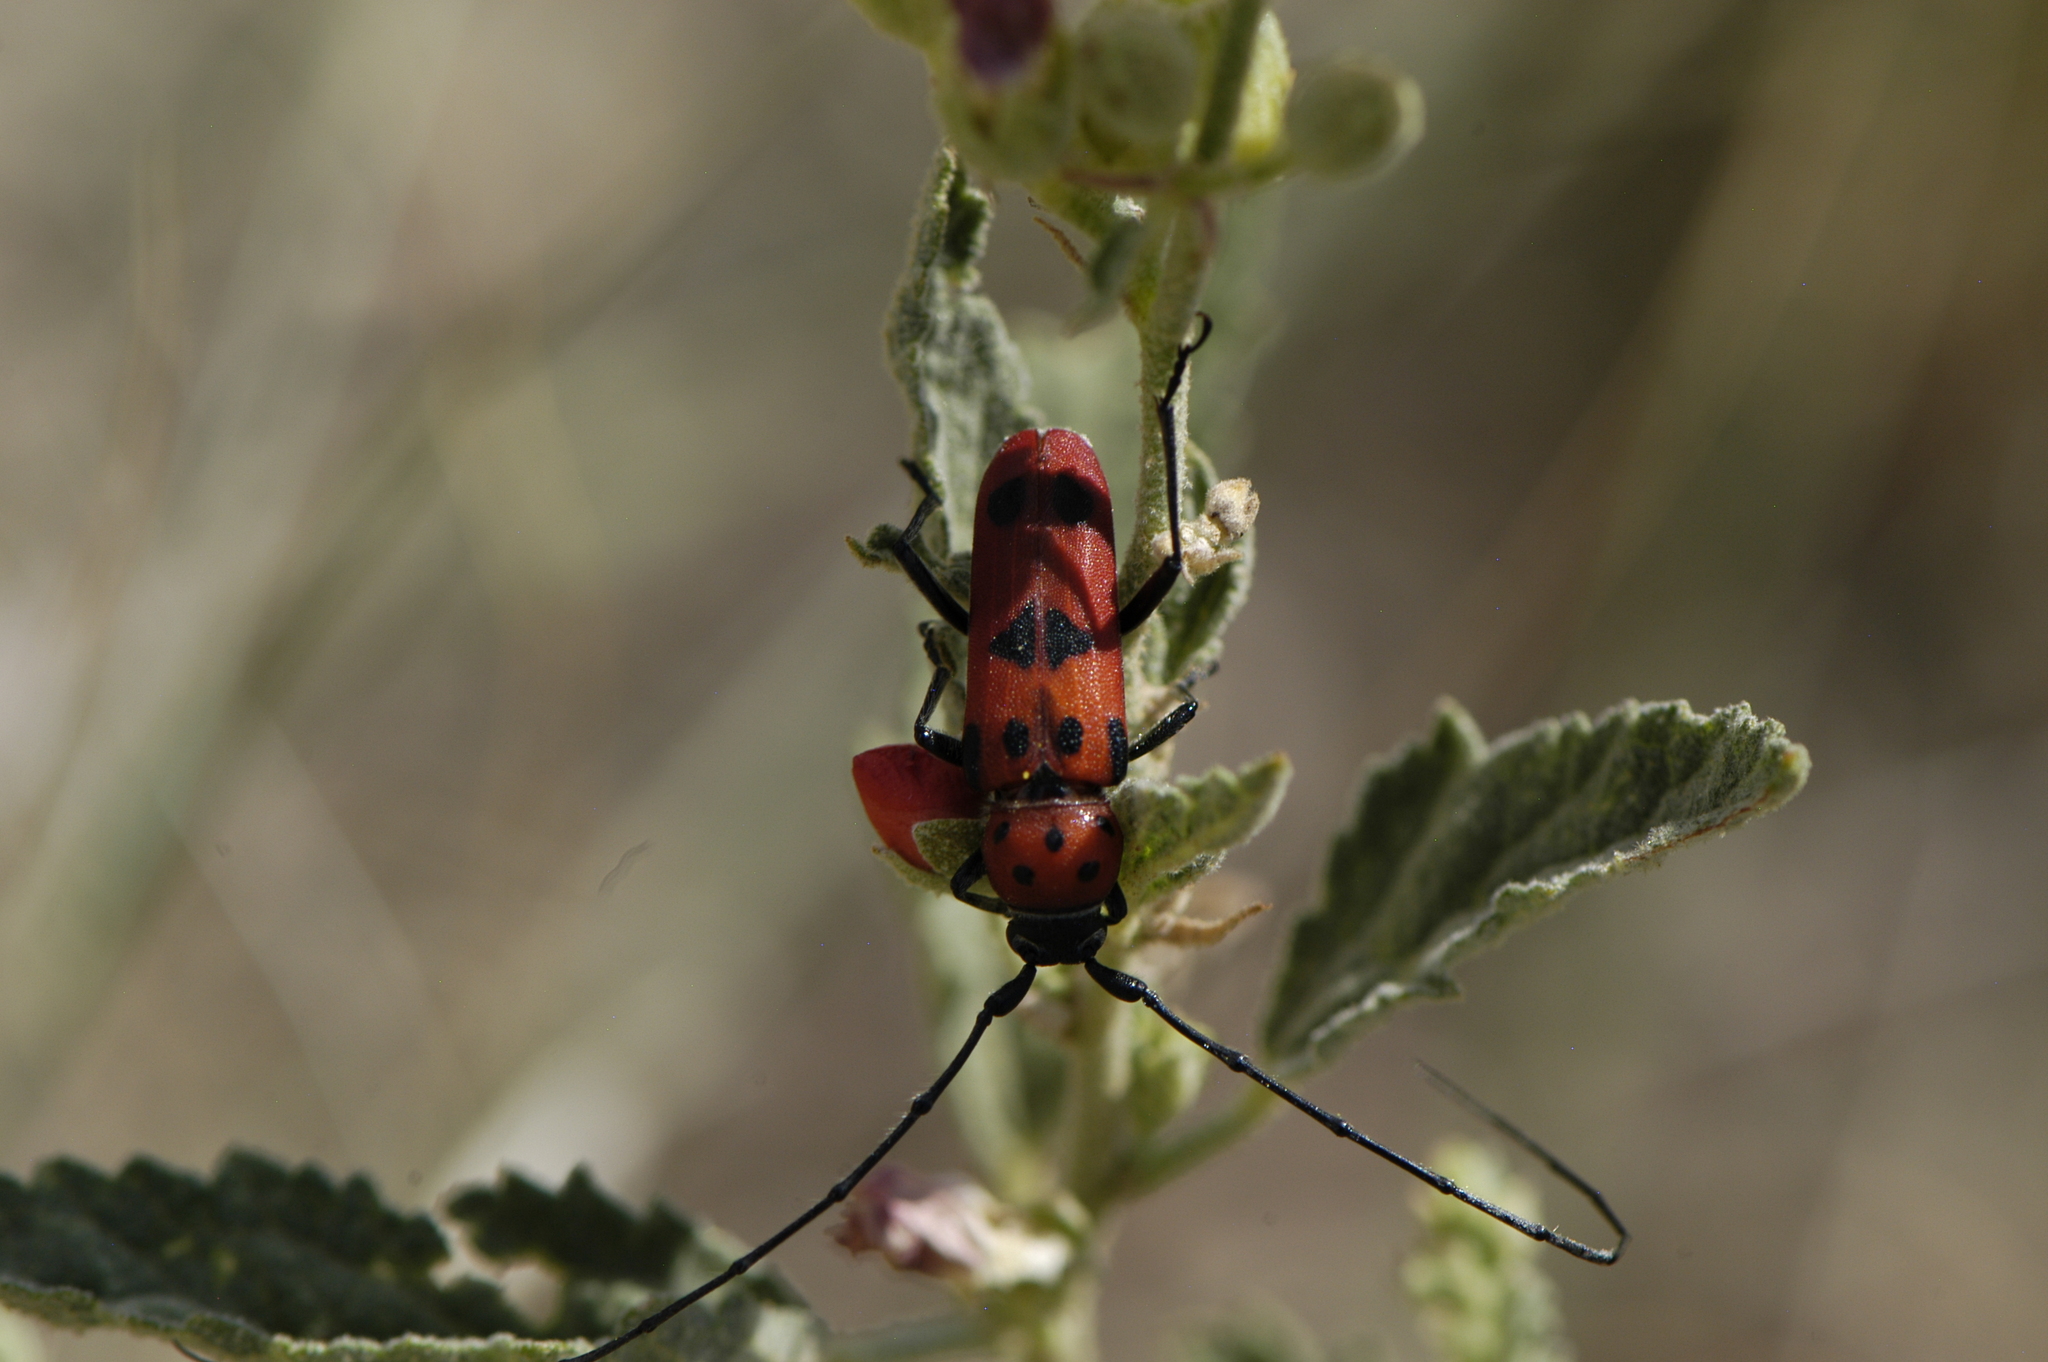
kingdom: Animalia
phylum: Arthropoda
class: Insecta
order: Coleoptera
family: Cerambycidae
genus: Tylosis
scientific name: Tylosis maculatus
